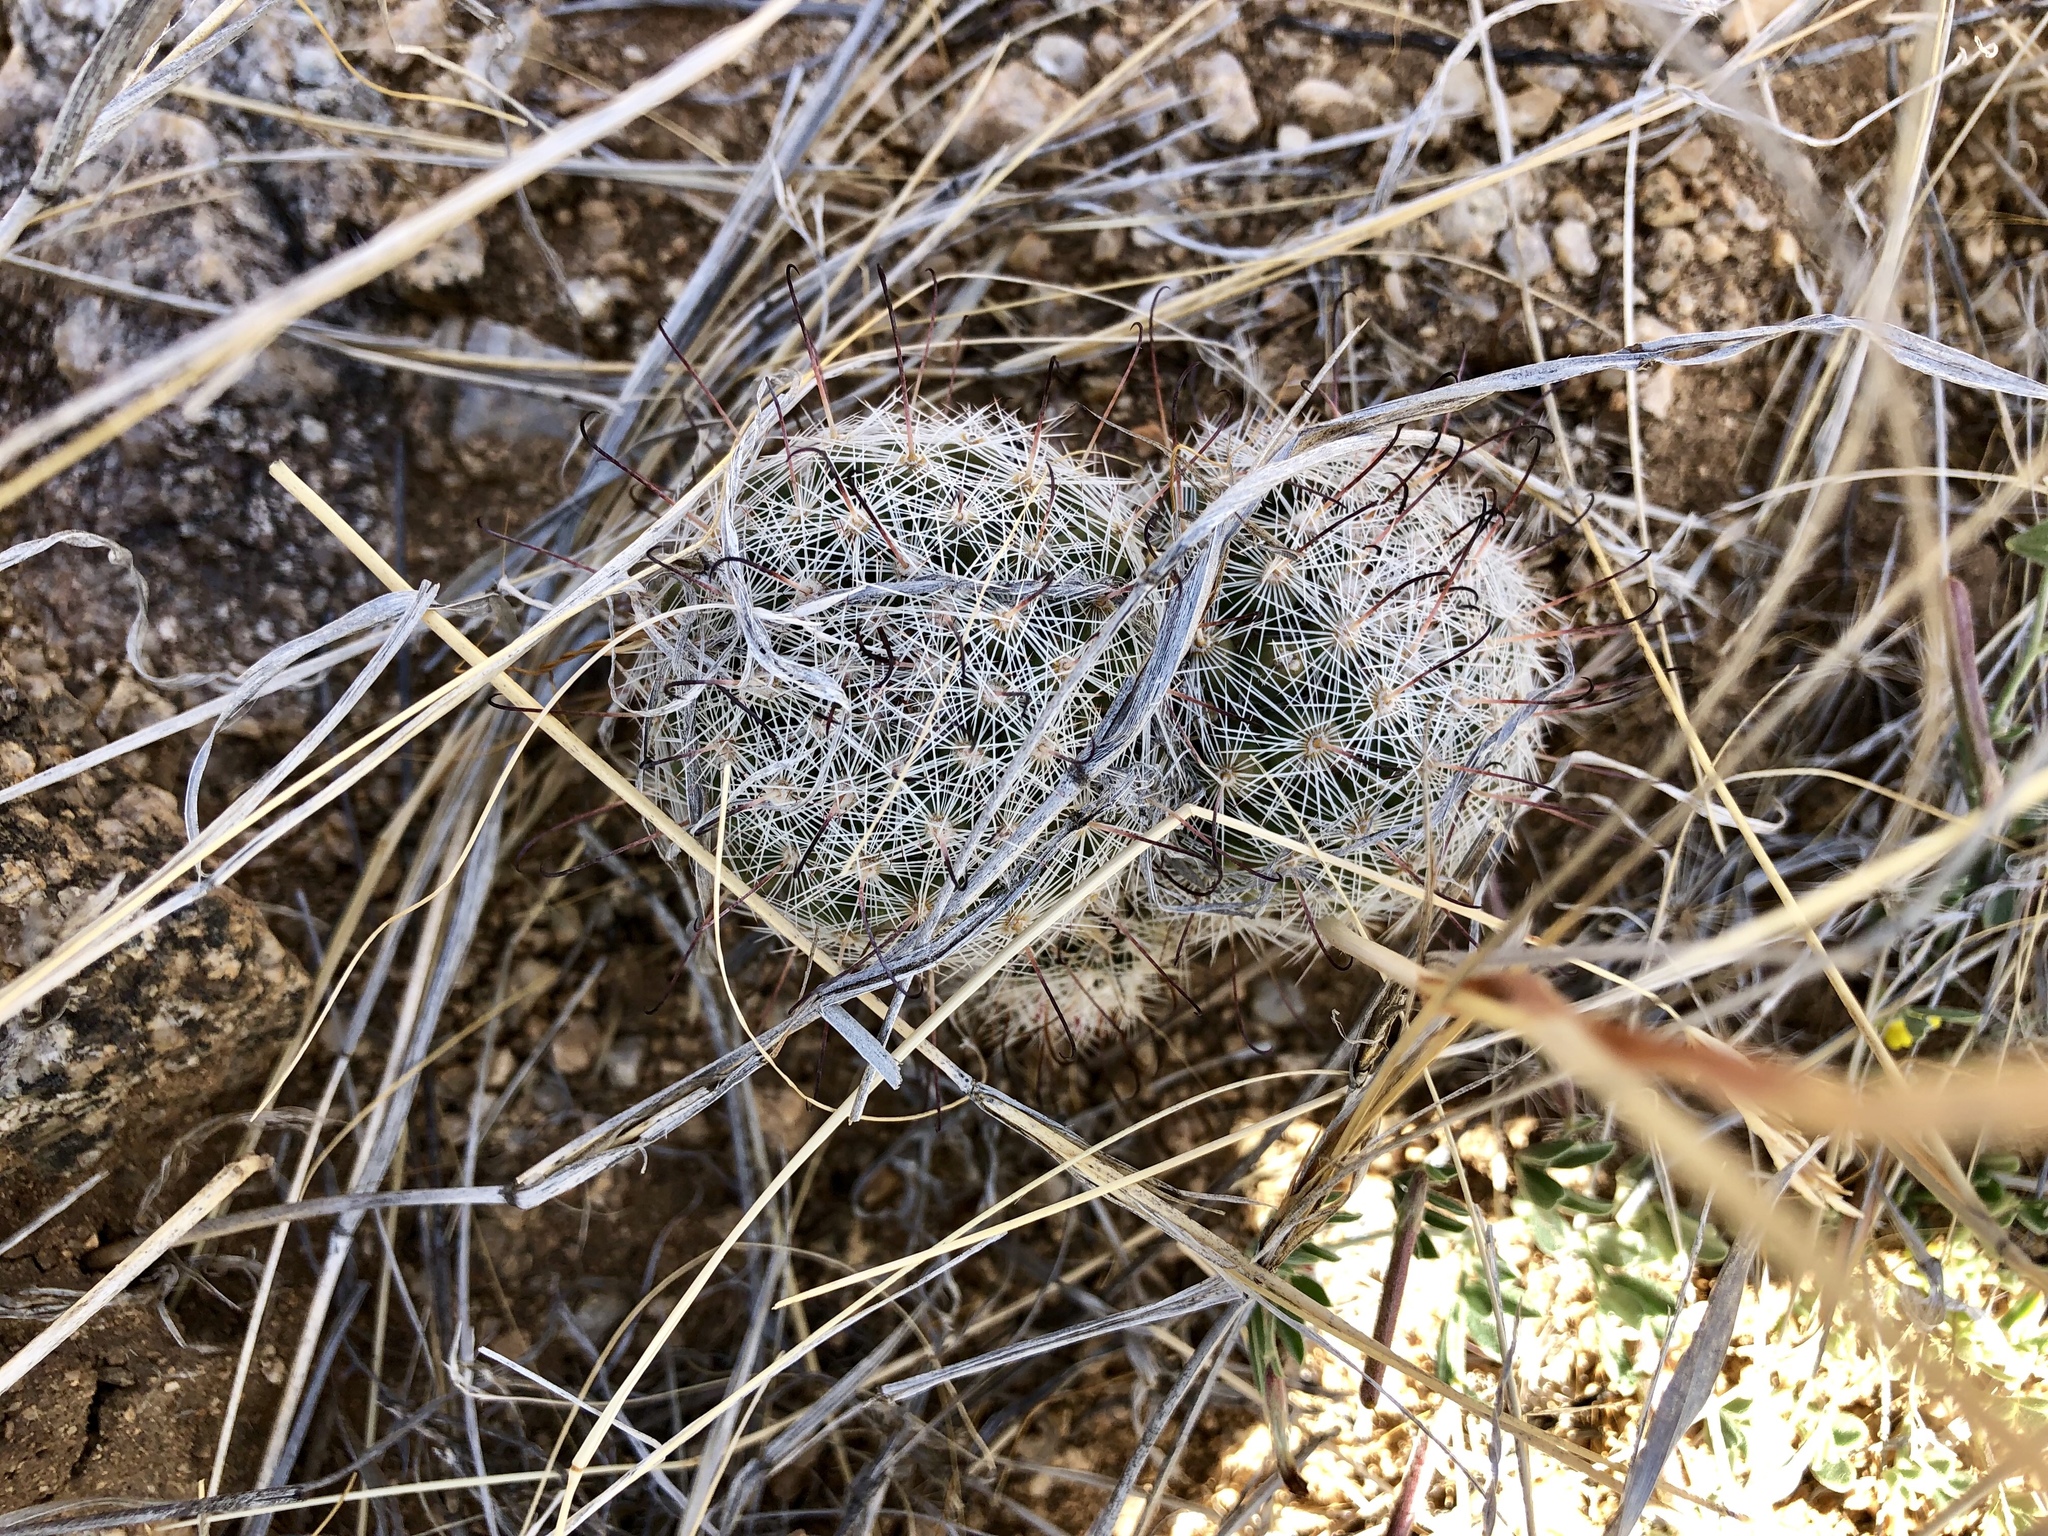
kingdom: Plantae
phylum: Tracheophyta
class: Magnoliopsida
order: Caryophyllales
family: Cactaceae
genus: Cochemiea
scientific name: Cochemiea grahamii
